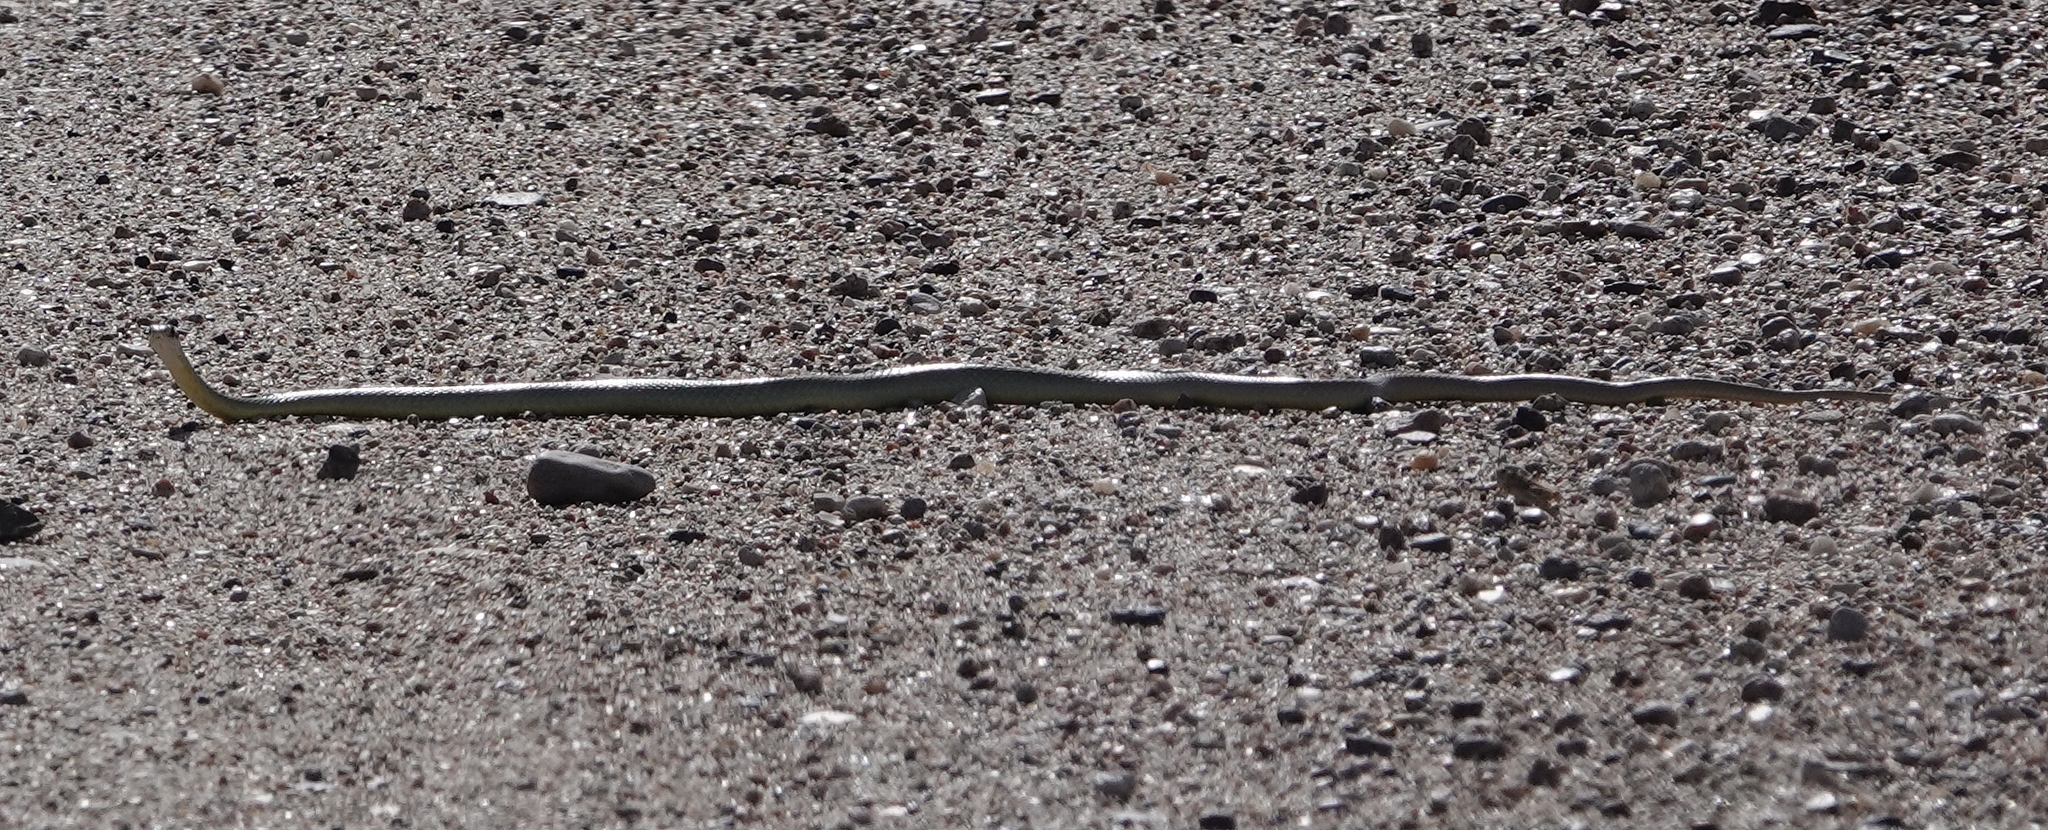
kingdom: Animalia
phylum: Chordata
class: Squamata
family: Colubridae
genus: Coluber
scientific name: Coluber constrictor
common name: Eastern racer
